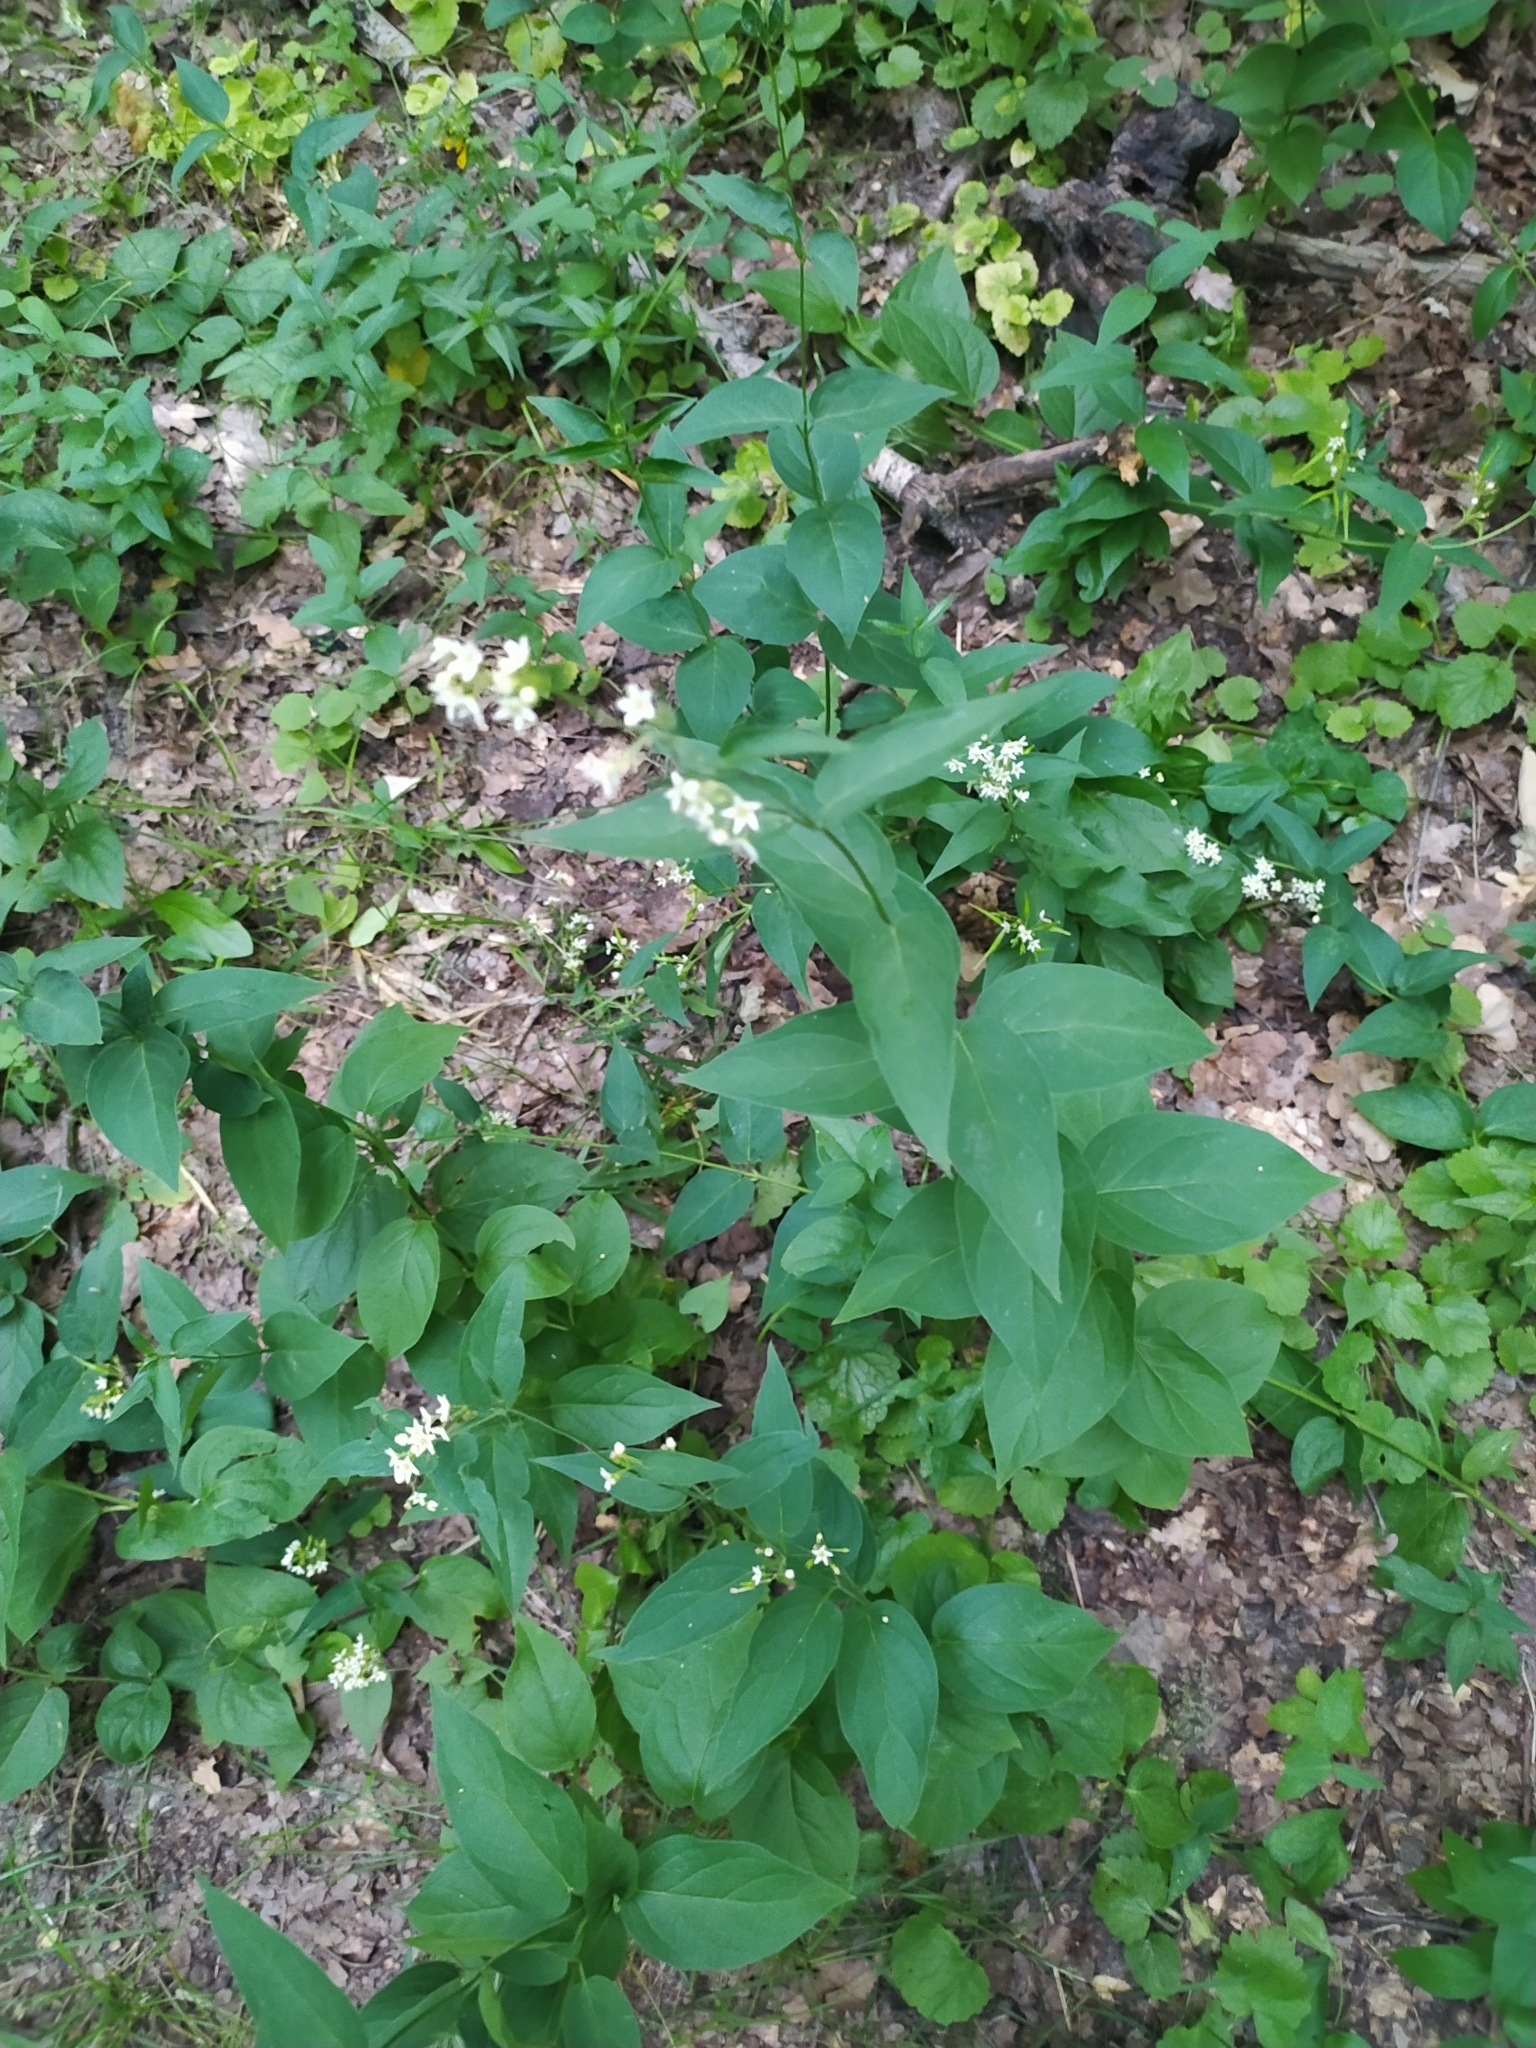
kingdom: Plantae
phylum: Tracheophyta
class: Magnoliopsida
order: Gentianales
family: Apocynaceae
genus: Vincetoxicum
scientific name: Vincetoxicum hirundinaria
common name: White swallowwort
